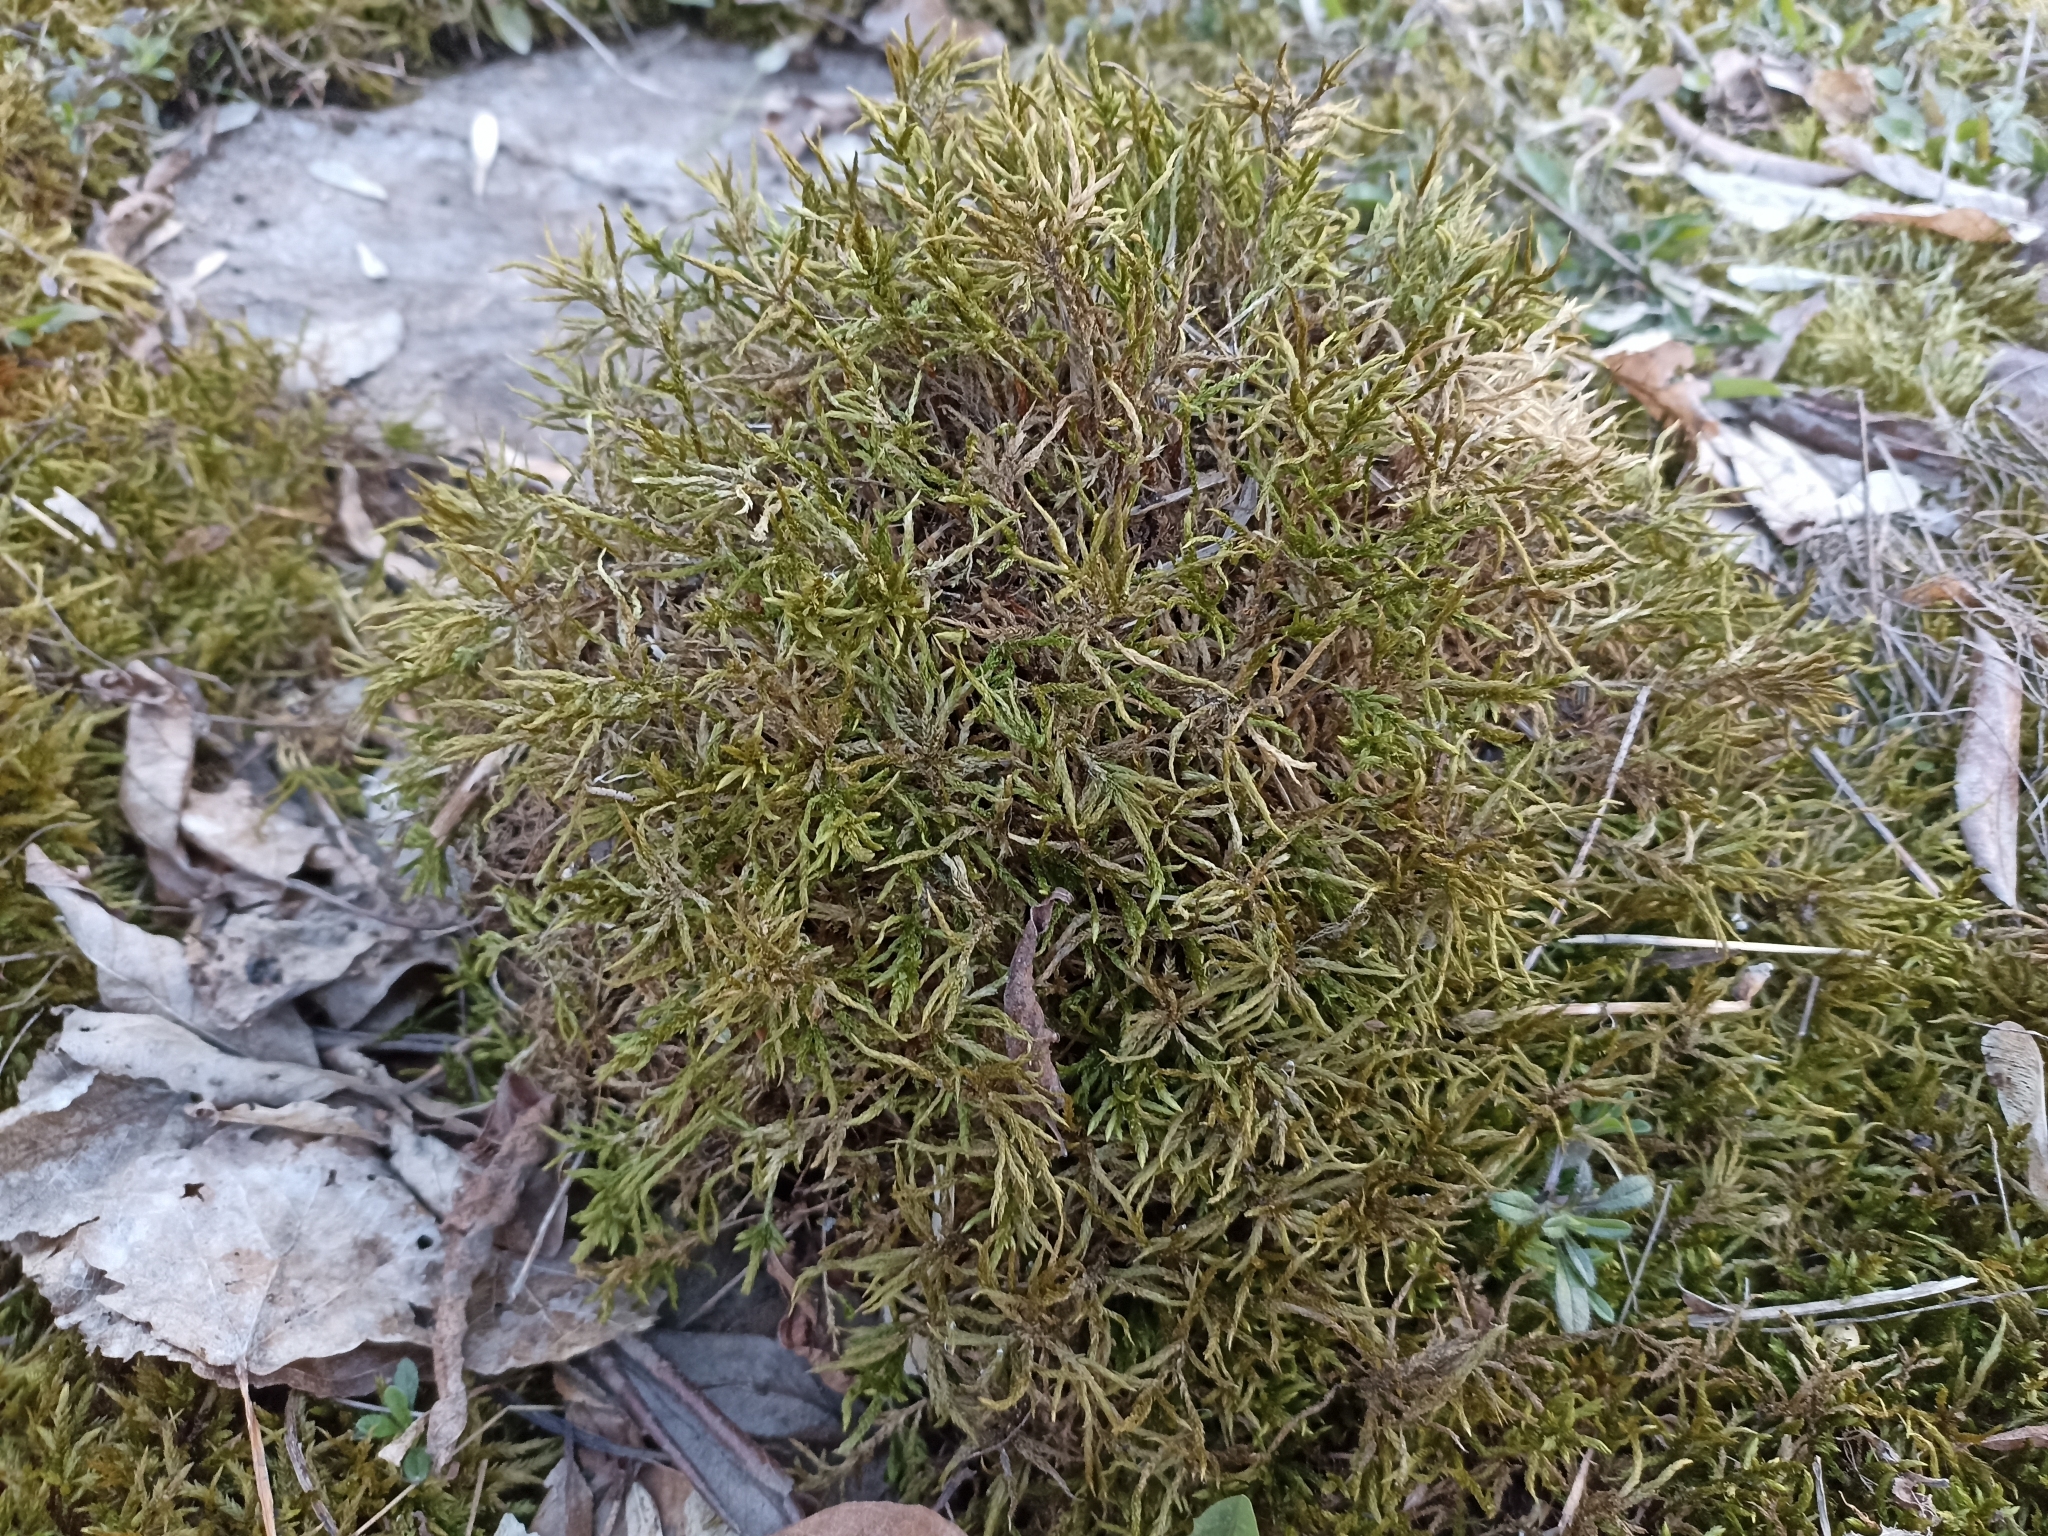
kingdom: Plantae
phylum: Bryophyta
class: Bryopsida
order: Hypnales
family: Climaciaceae
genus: Climacium
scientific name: Climacium dendroides
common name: Northern tree moss
